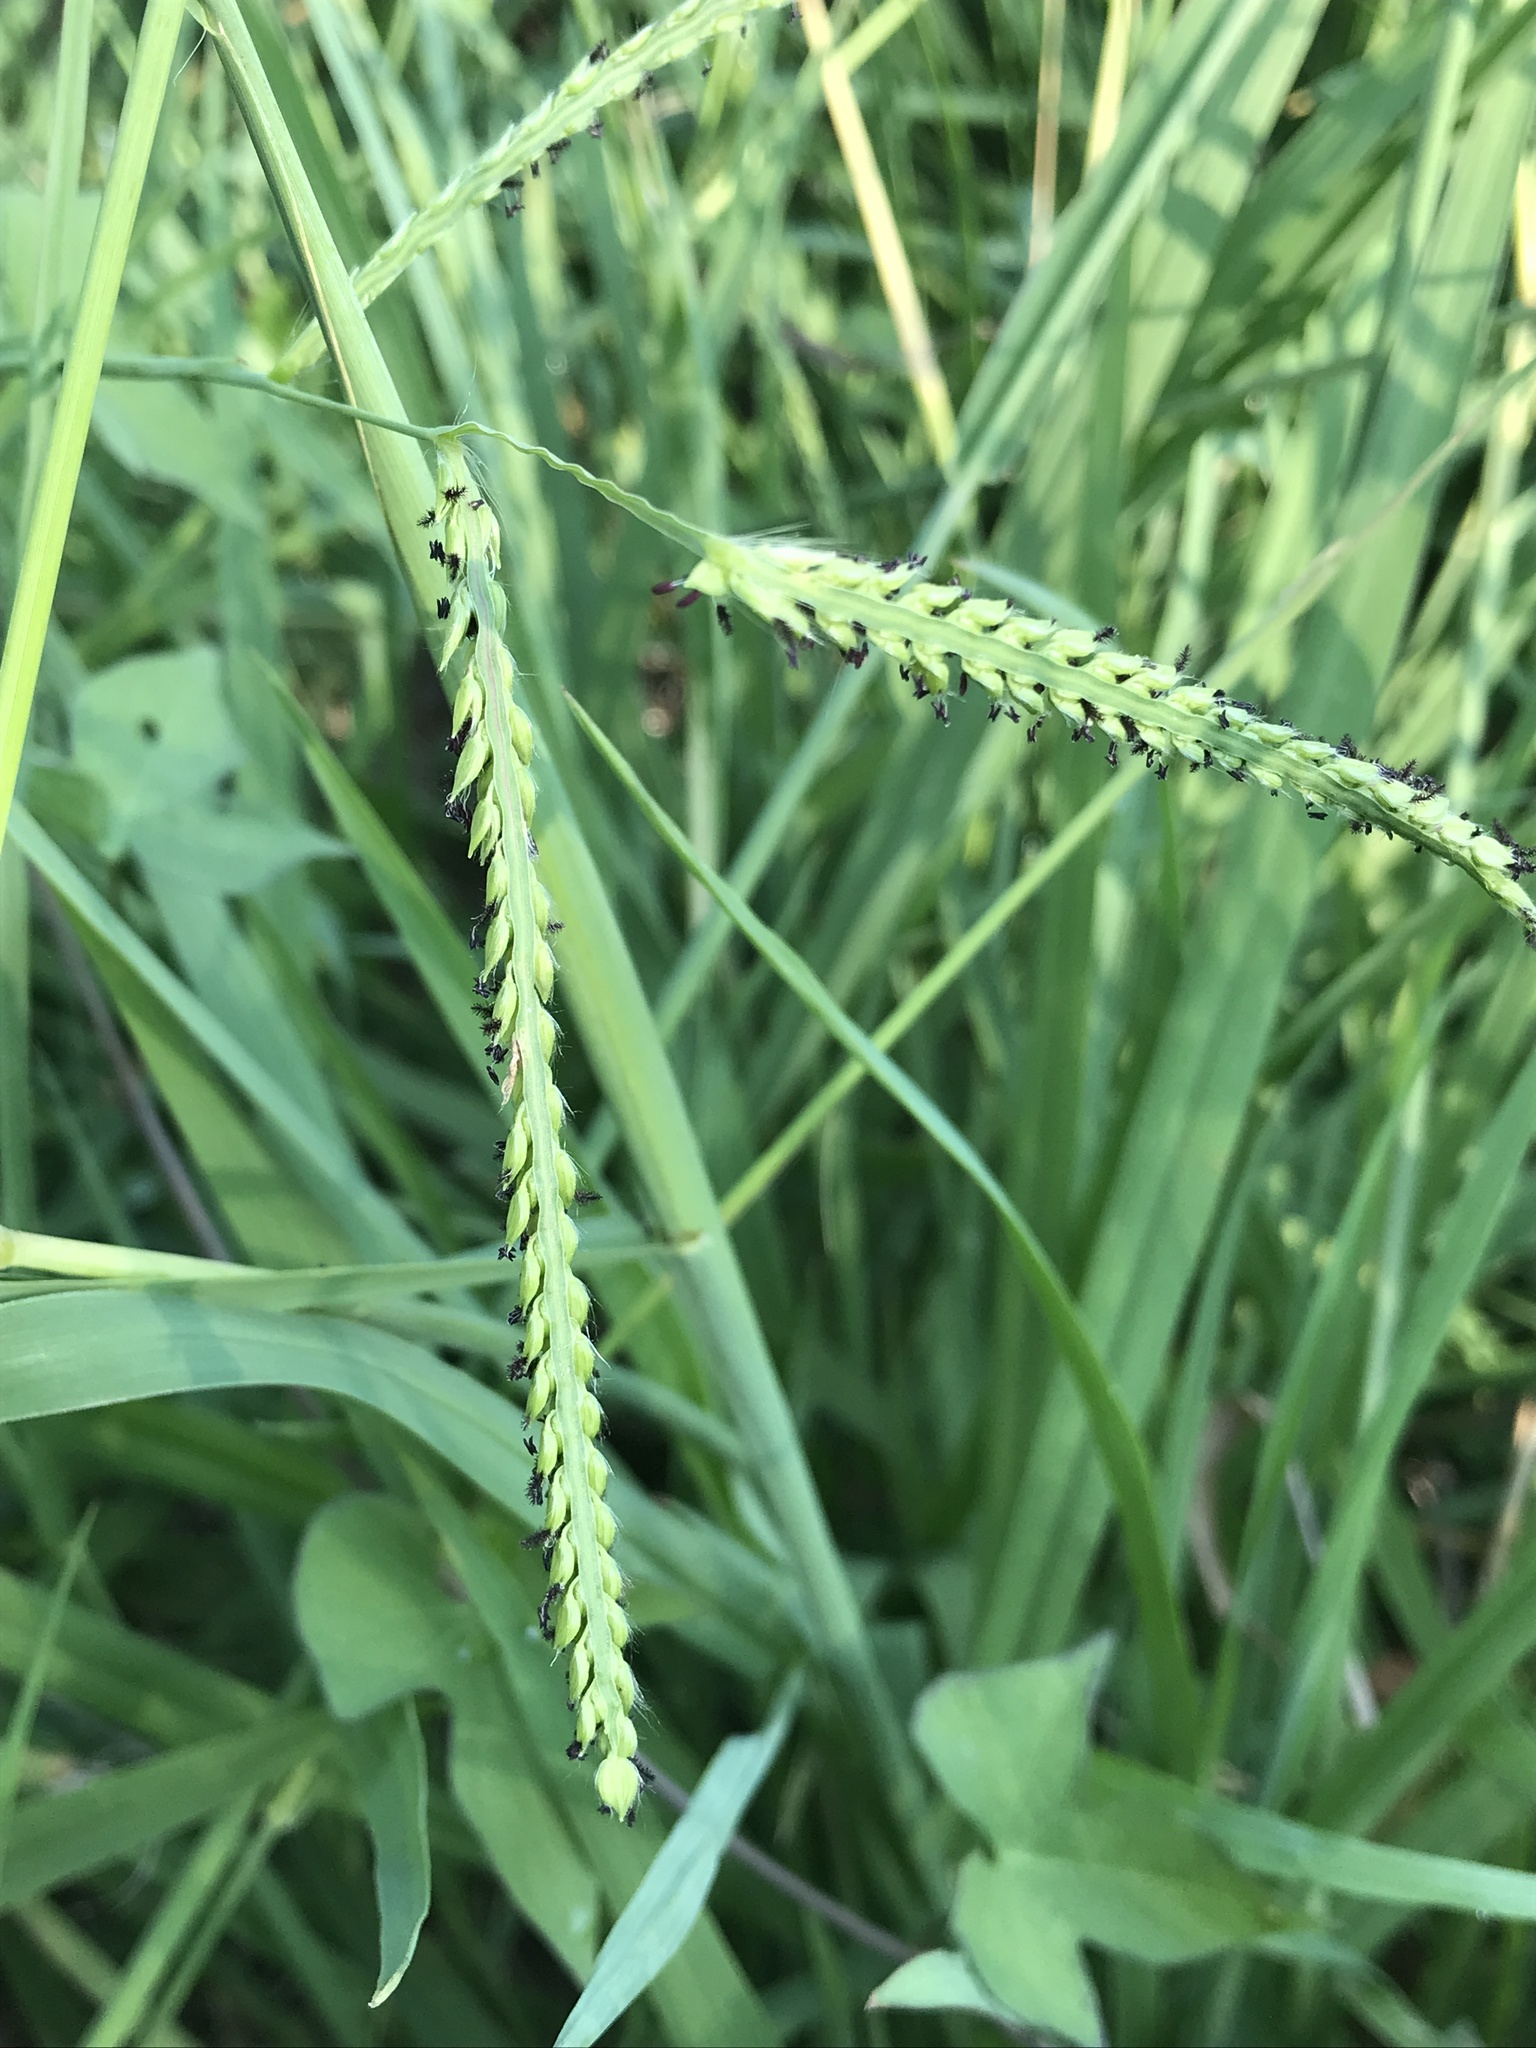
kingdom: Plantae
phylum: Tracheophyta
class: Liliopsida
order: Poales
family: Poaceae
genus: Paspalum
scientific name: Paspalum dilatatum
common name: Dallisgrass
